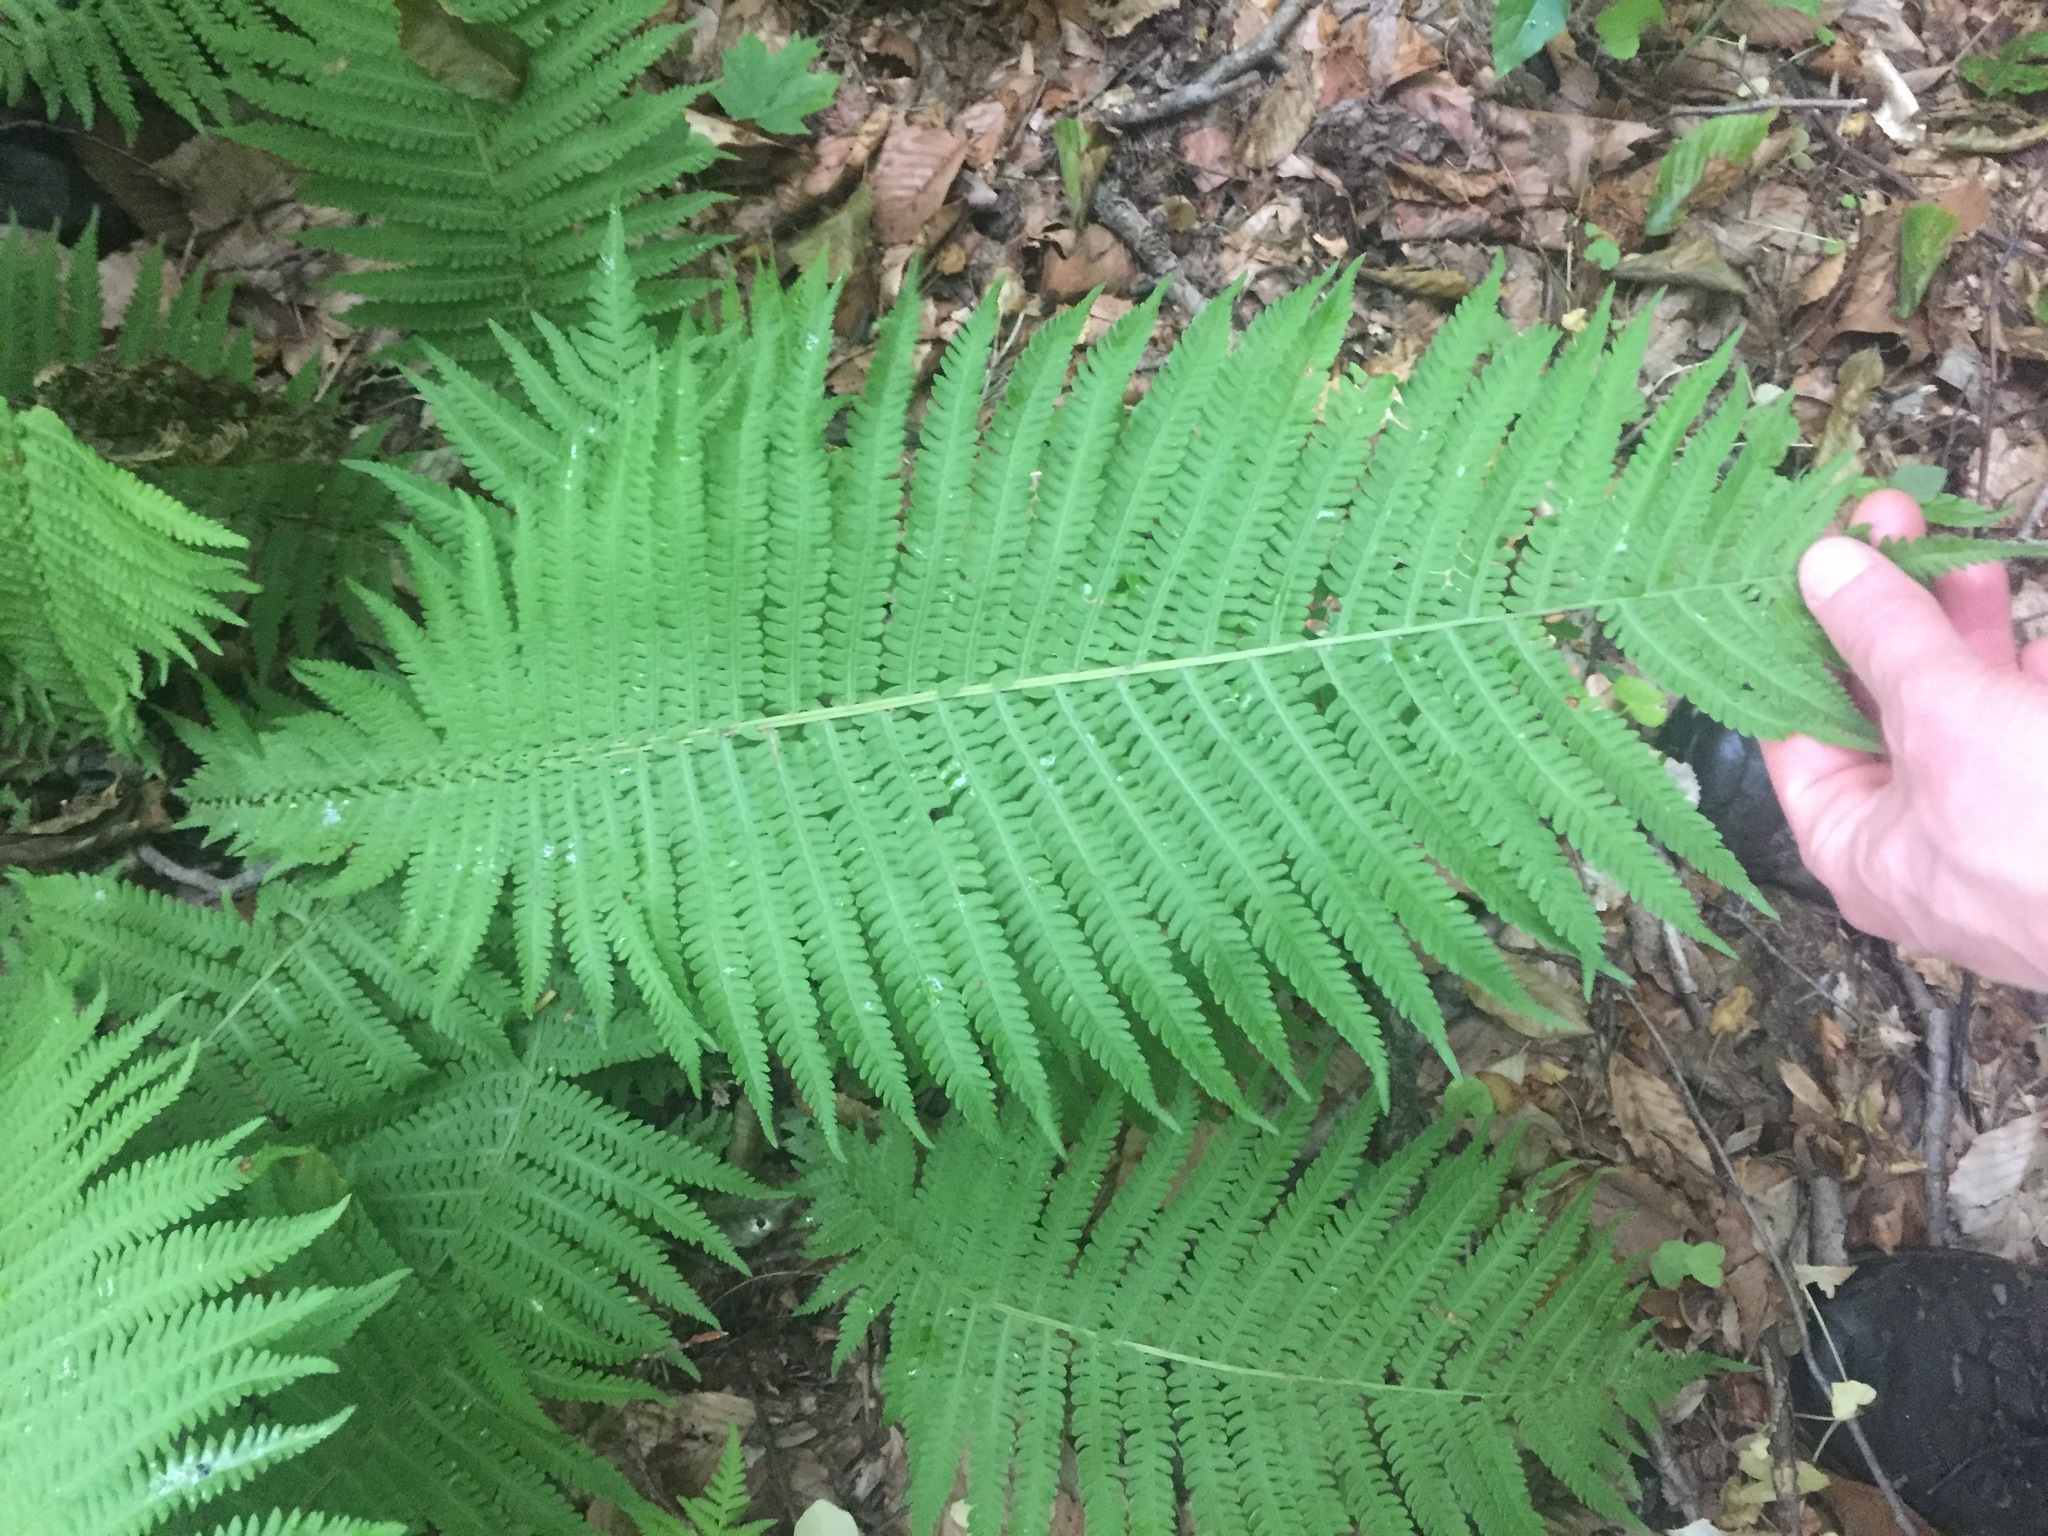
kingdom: Plantae
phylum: Tracheophyta
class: Polypodiopsida
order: Polypodiales
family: Onocleaceae
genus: Matteuccia
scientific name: Matteuccia struthiopteris
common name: Ostrich fern
